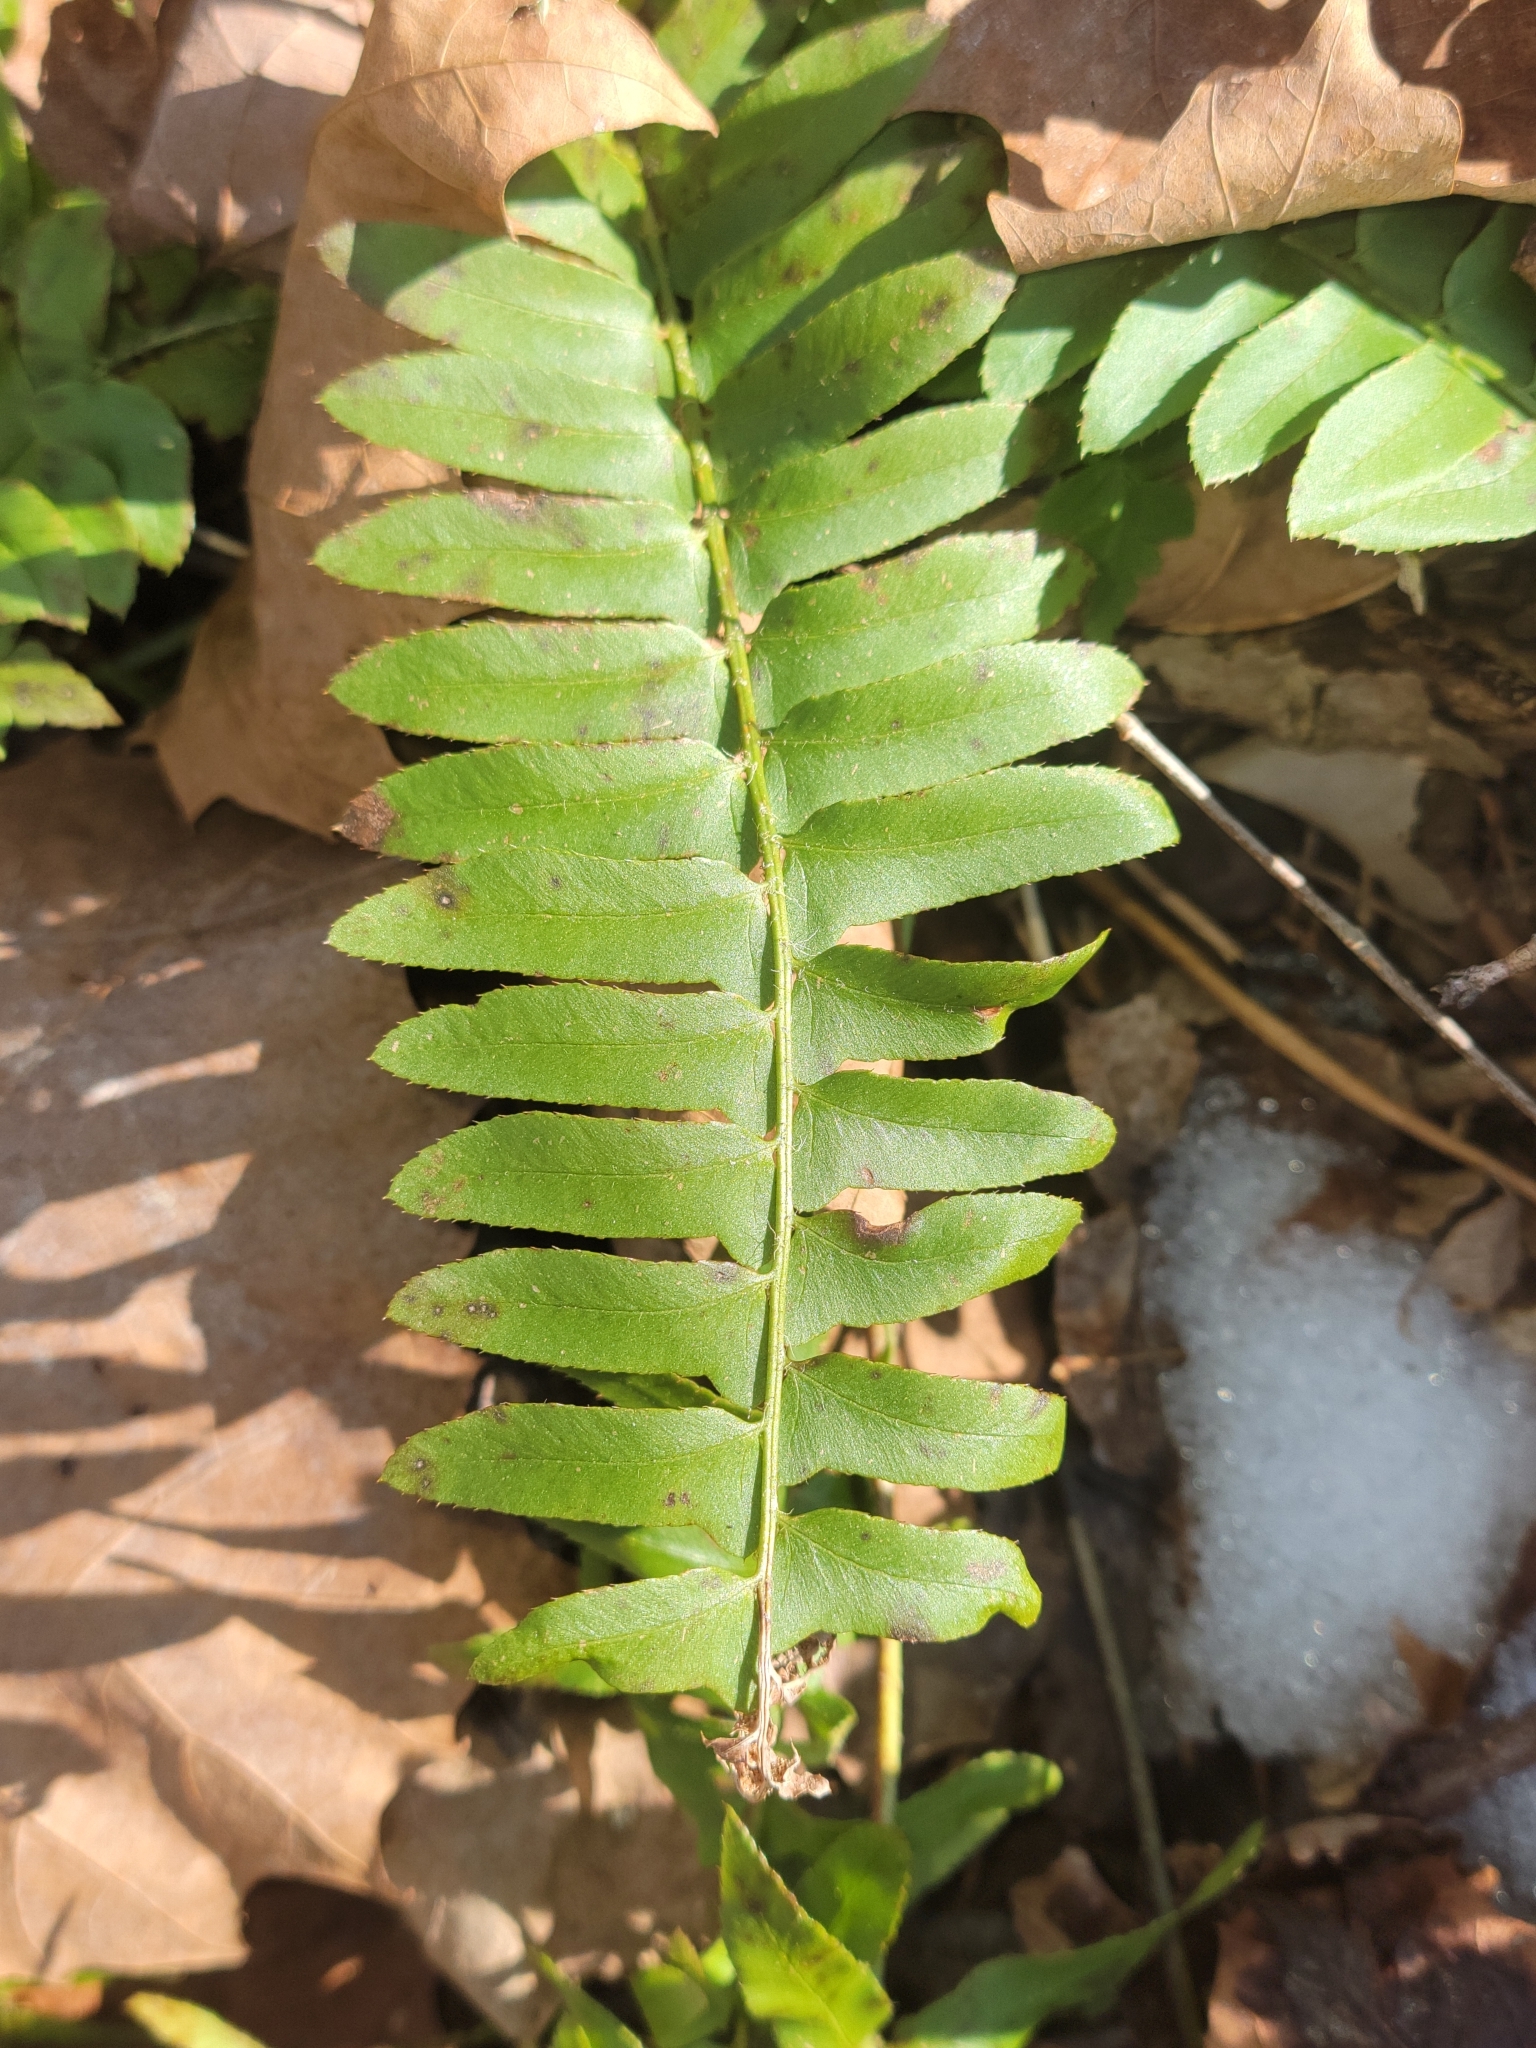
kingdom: Plantae
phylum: Tracheophyta
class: Polypodiopsida
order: Polypodiales
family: Dryopteridaceae
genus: Polystichum
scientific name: Polystichum acrostichoides
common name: Christmas fern
